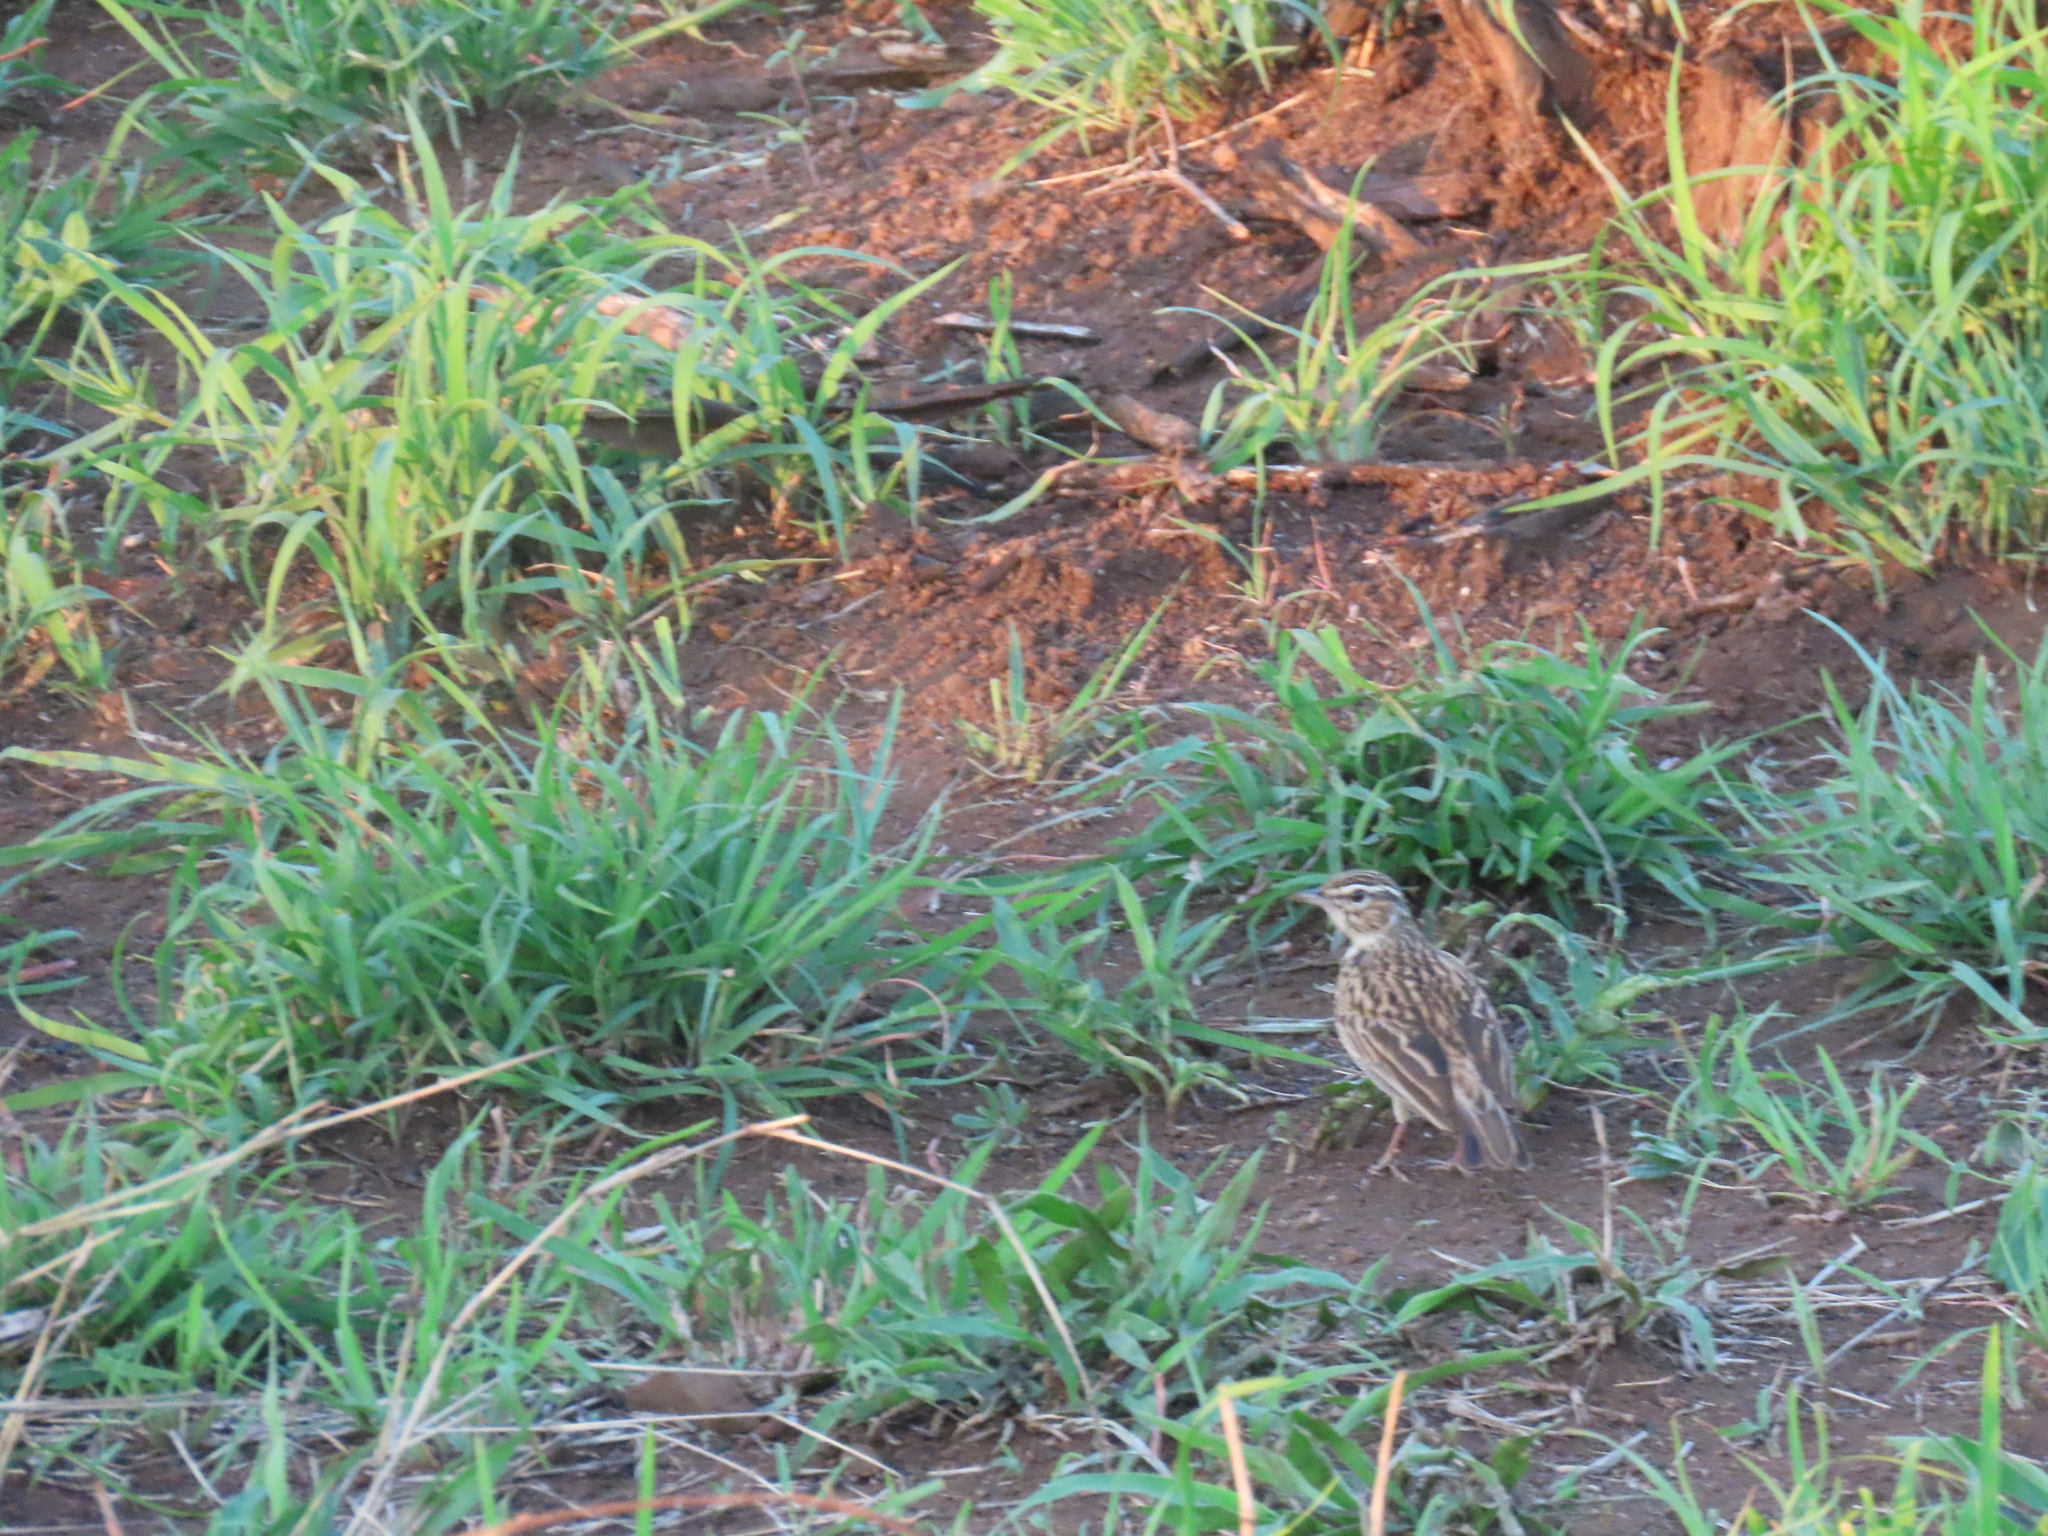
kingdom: Animalia
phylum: Chordata
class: Aves
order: Passeriformes
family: Alaudidae
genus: Calendulauda
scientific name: Calendulauda sabota
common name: Sabota lark
